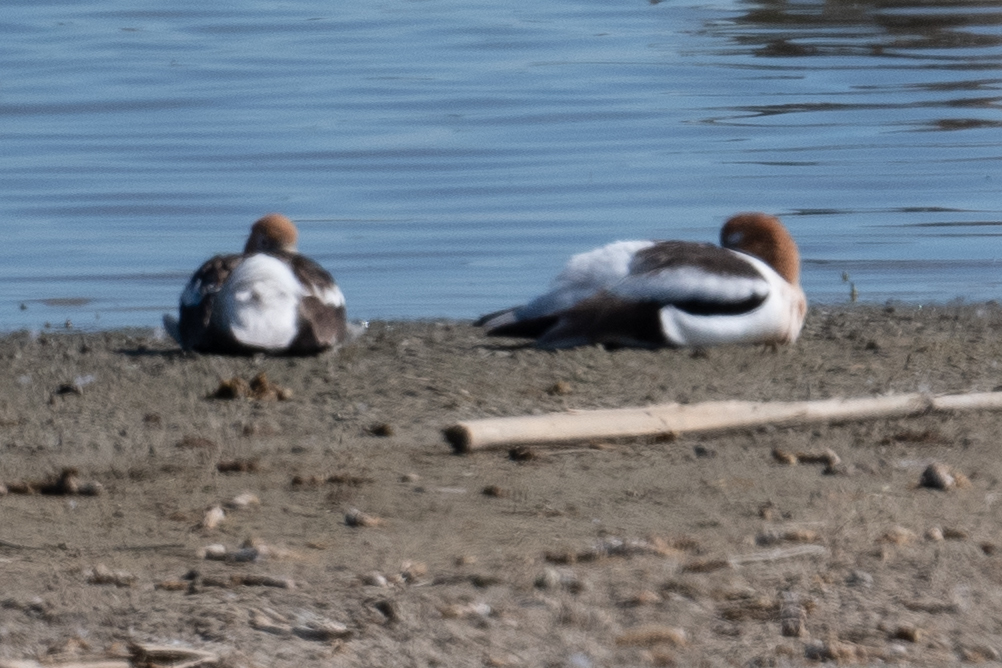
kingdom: Animalia
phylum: Chordata
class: Aves
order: Charadriiformes
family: Recurvirostridae
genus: Recurvirostra
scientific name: Recurvirostra americana
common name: American avocet
